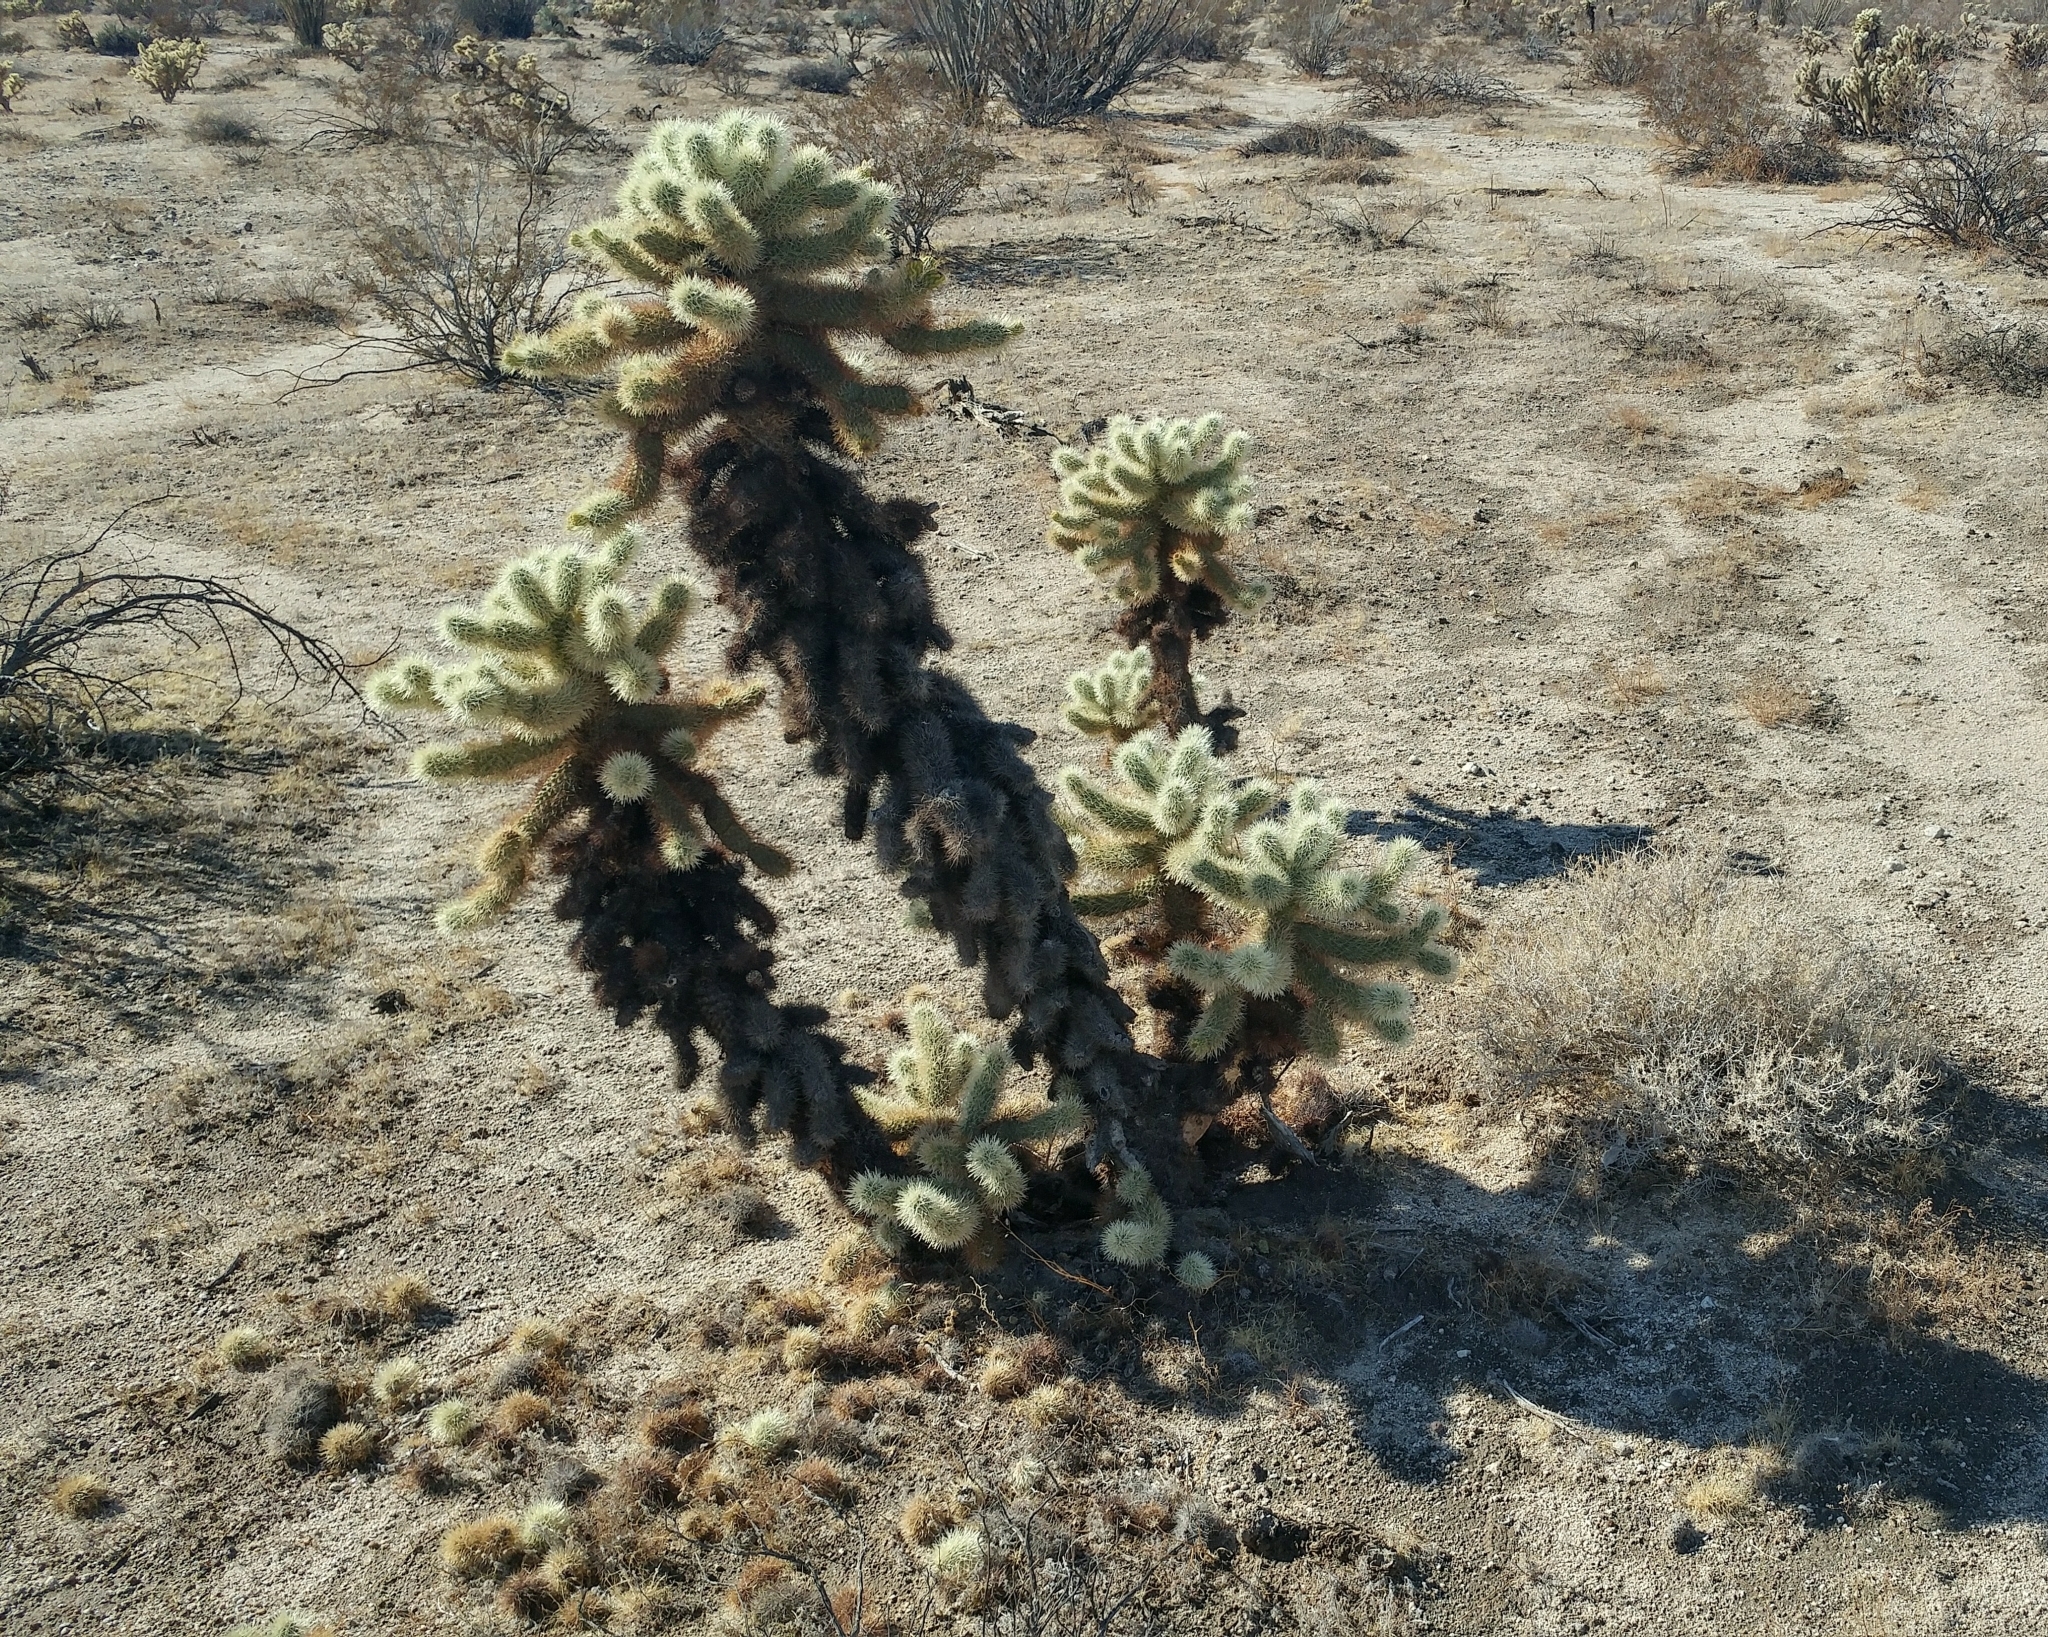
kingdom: Plantae
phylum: Tracheophyta
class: Magnoliopsida
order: Caryophyllales
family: Cactaceae
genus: Cylindropuntia
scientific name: Cylindropuntia fosbergii
